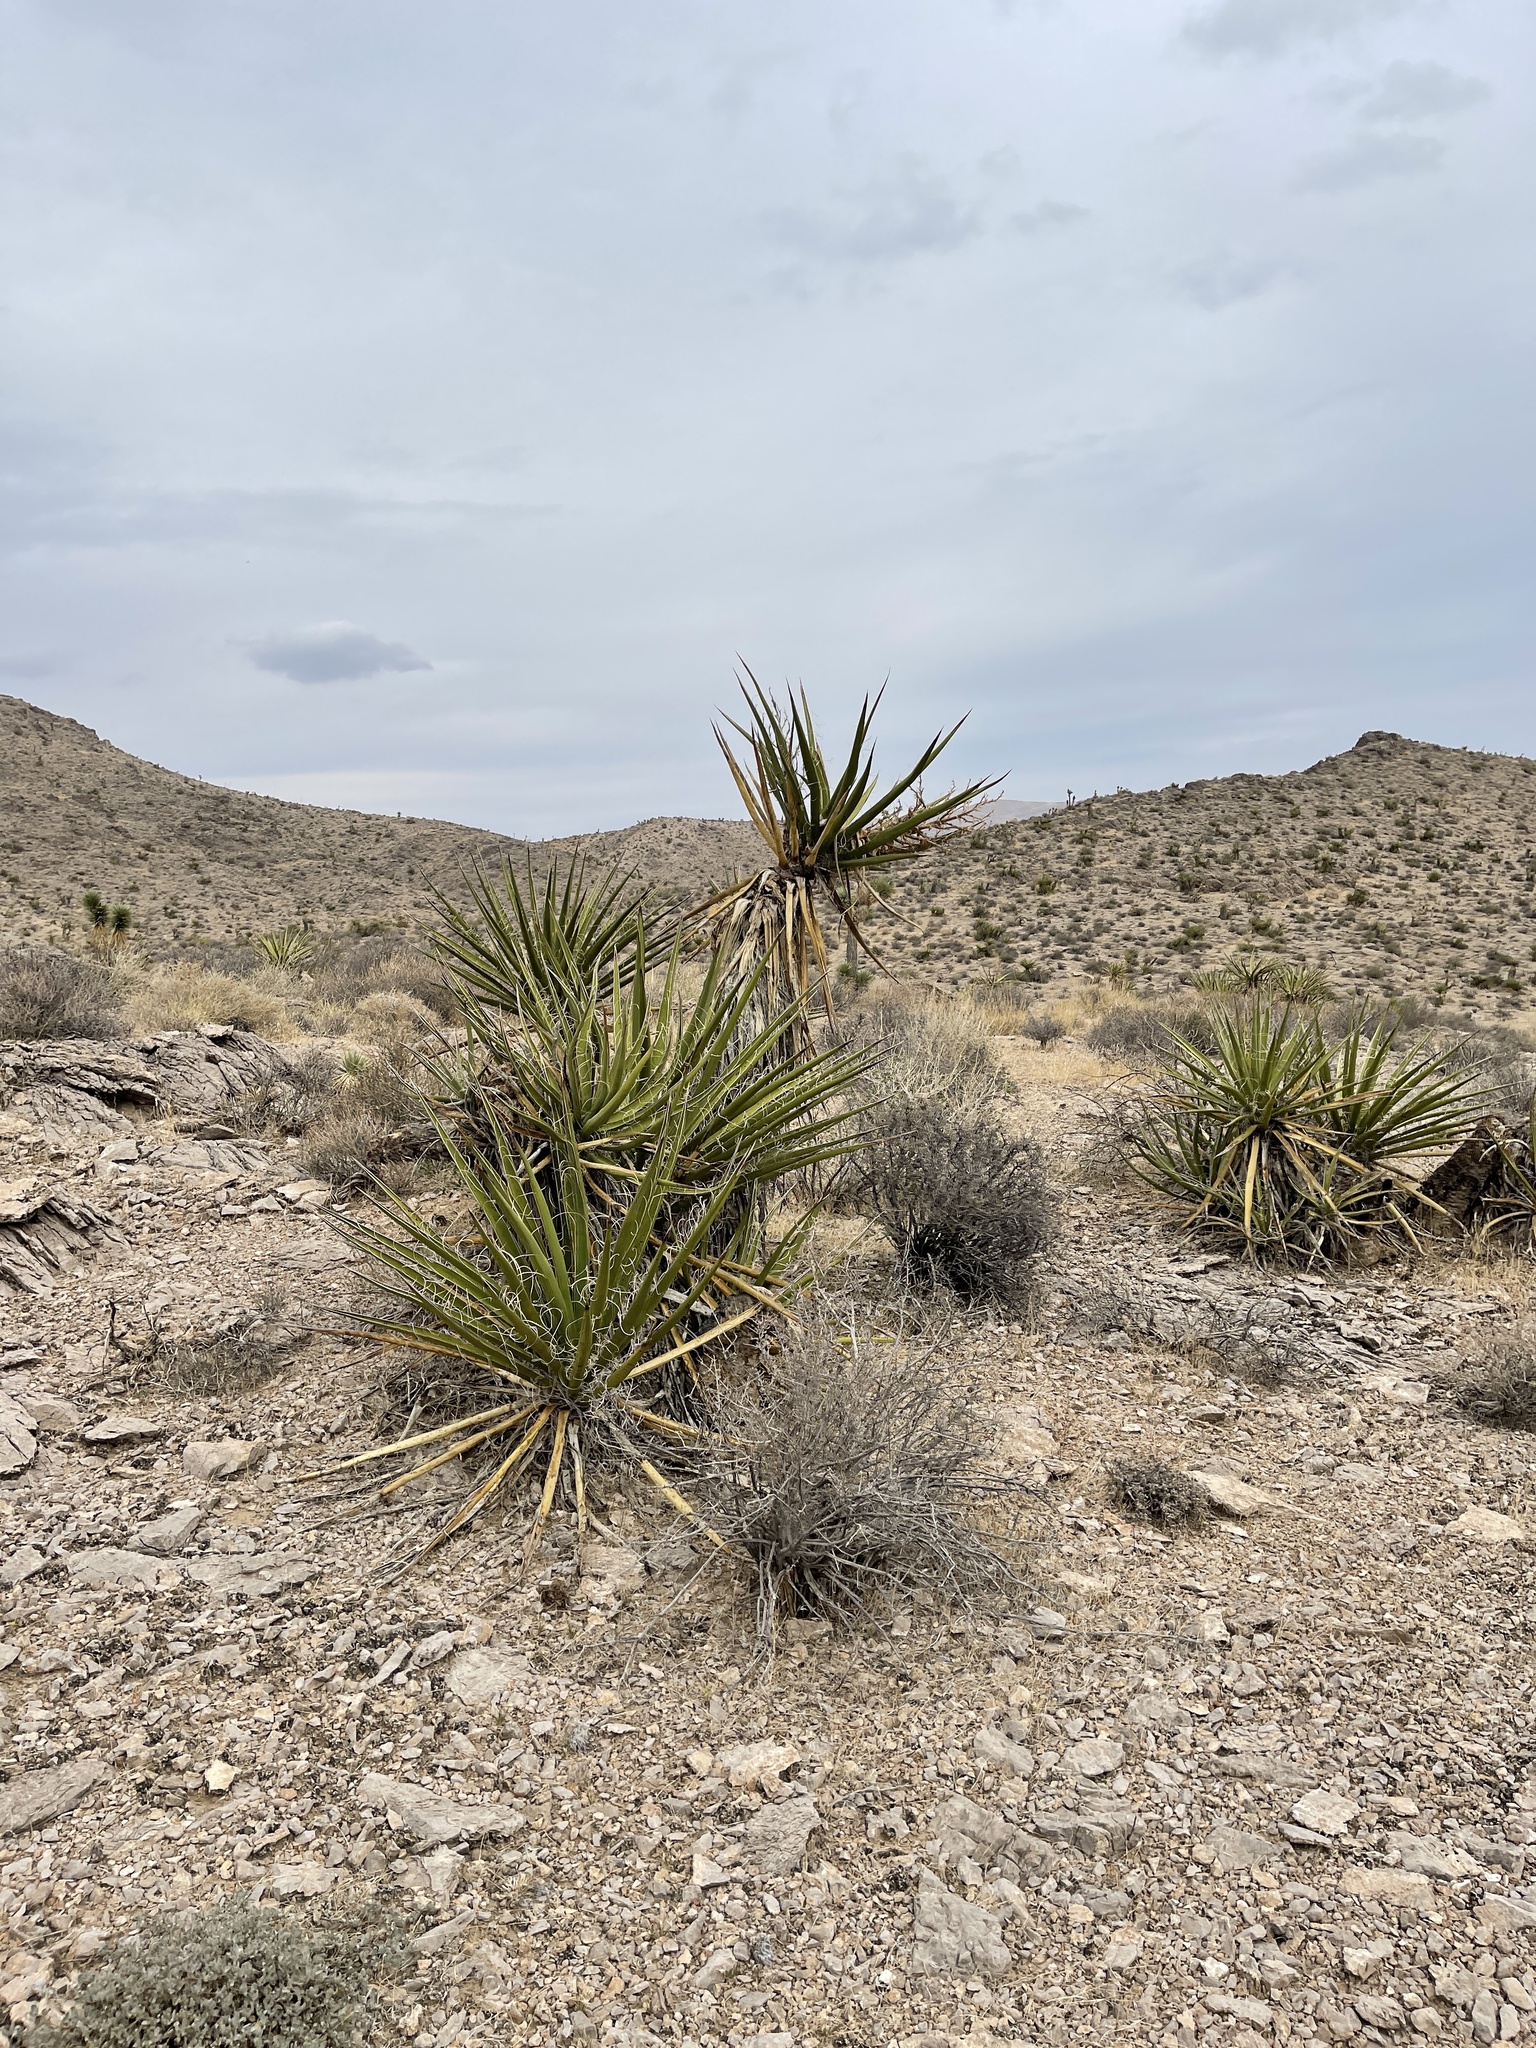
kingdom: Plantae
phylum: Tracheophyta
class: Liliopsida
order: Asparagales
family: Asparagaceae
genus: Yucca
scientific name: Yucca schidigera
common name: Mojave yucca
